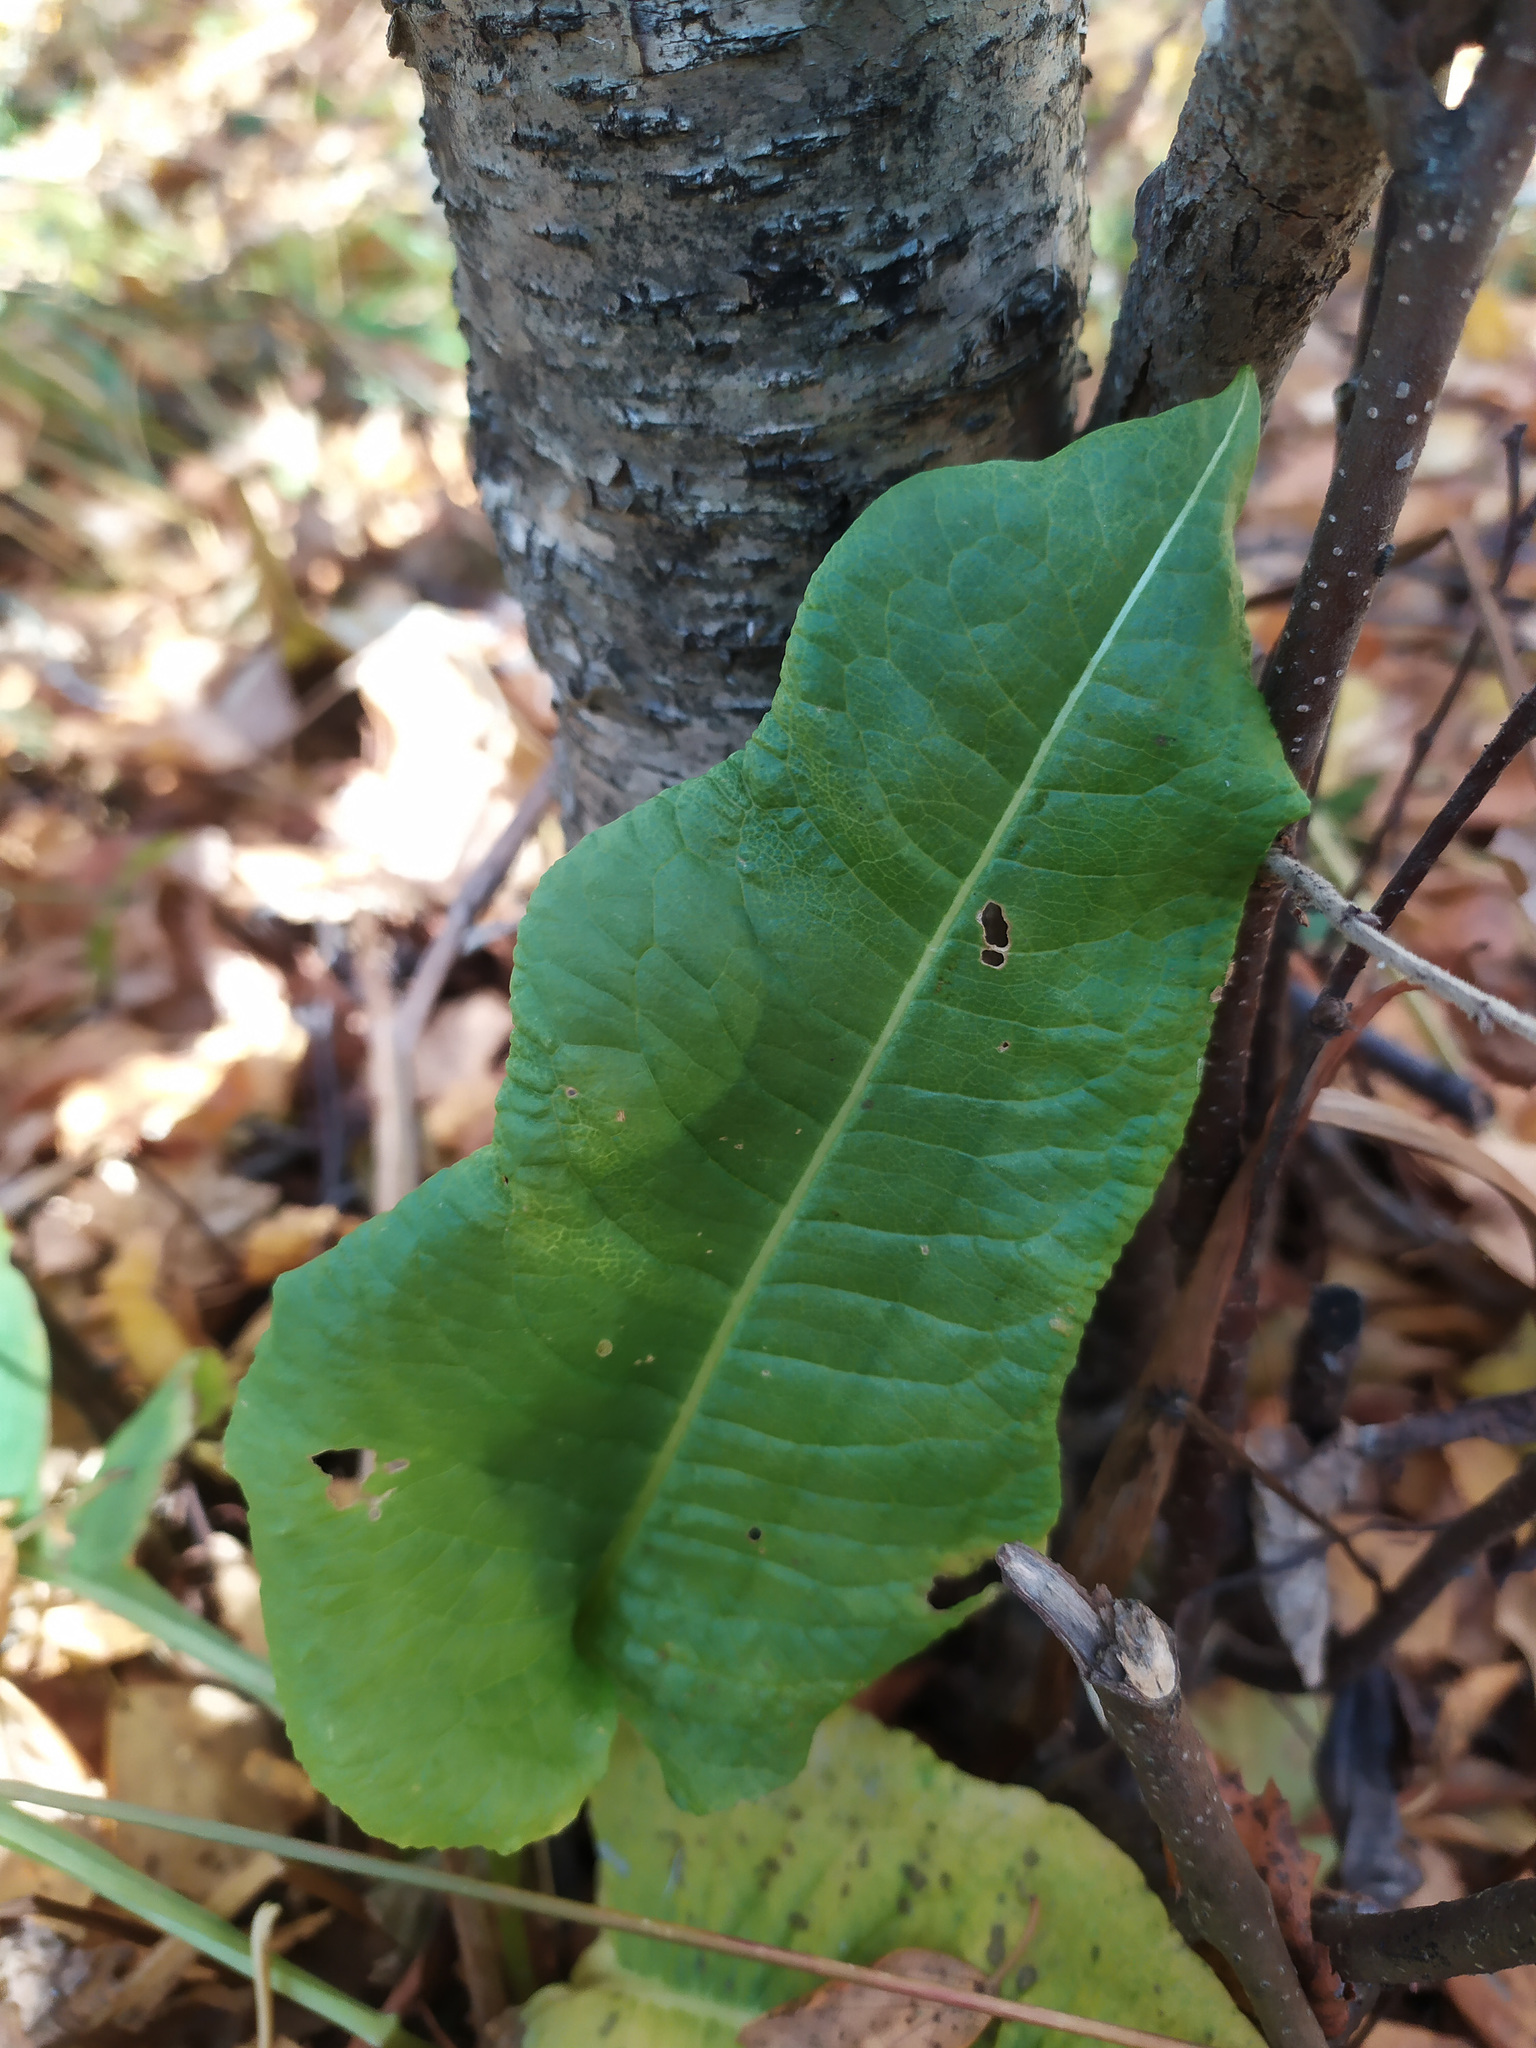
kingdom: Plantae
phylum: Tracheophyta
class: Magnoliopsida
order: Caryophyllales
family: Polygonaceae
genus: Rumex
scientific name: Rumex
